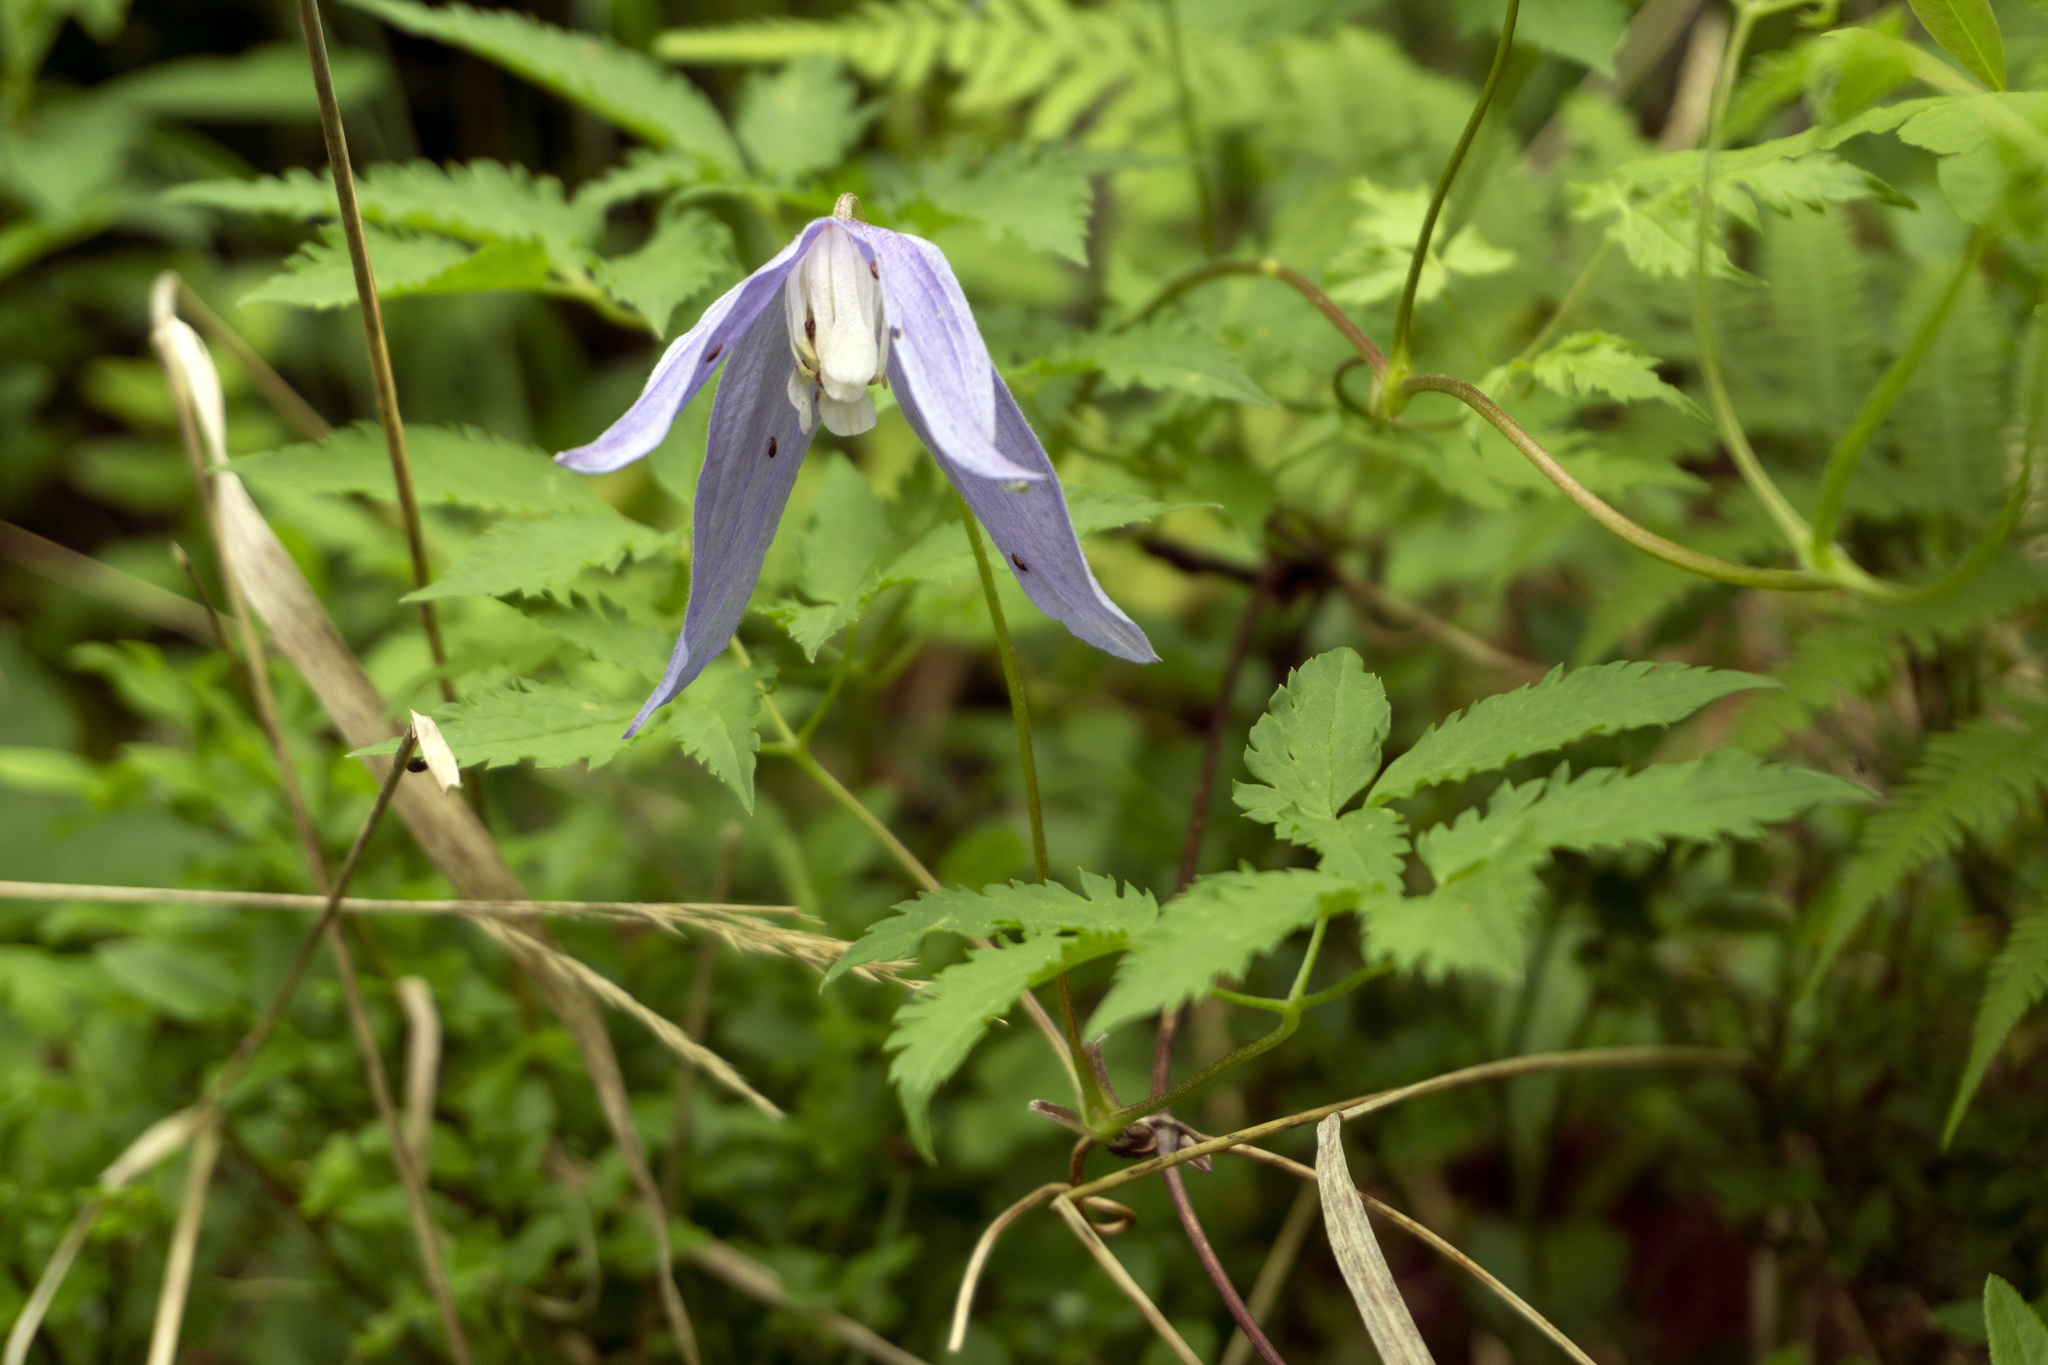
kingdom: Plantae
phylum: Tracheophyta
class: Magnoliopsida
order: Ranunculales
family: Ranunculaceae
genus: Clematis
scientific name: Clematis alpina
